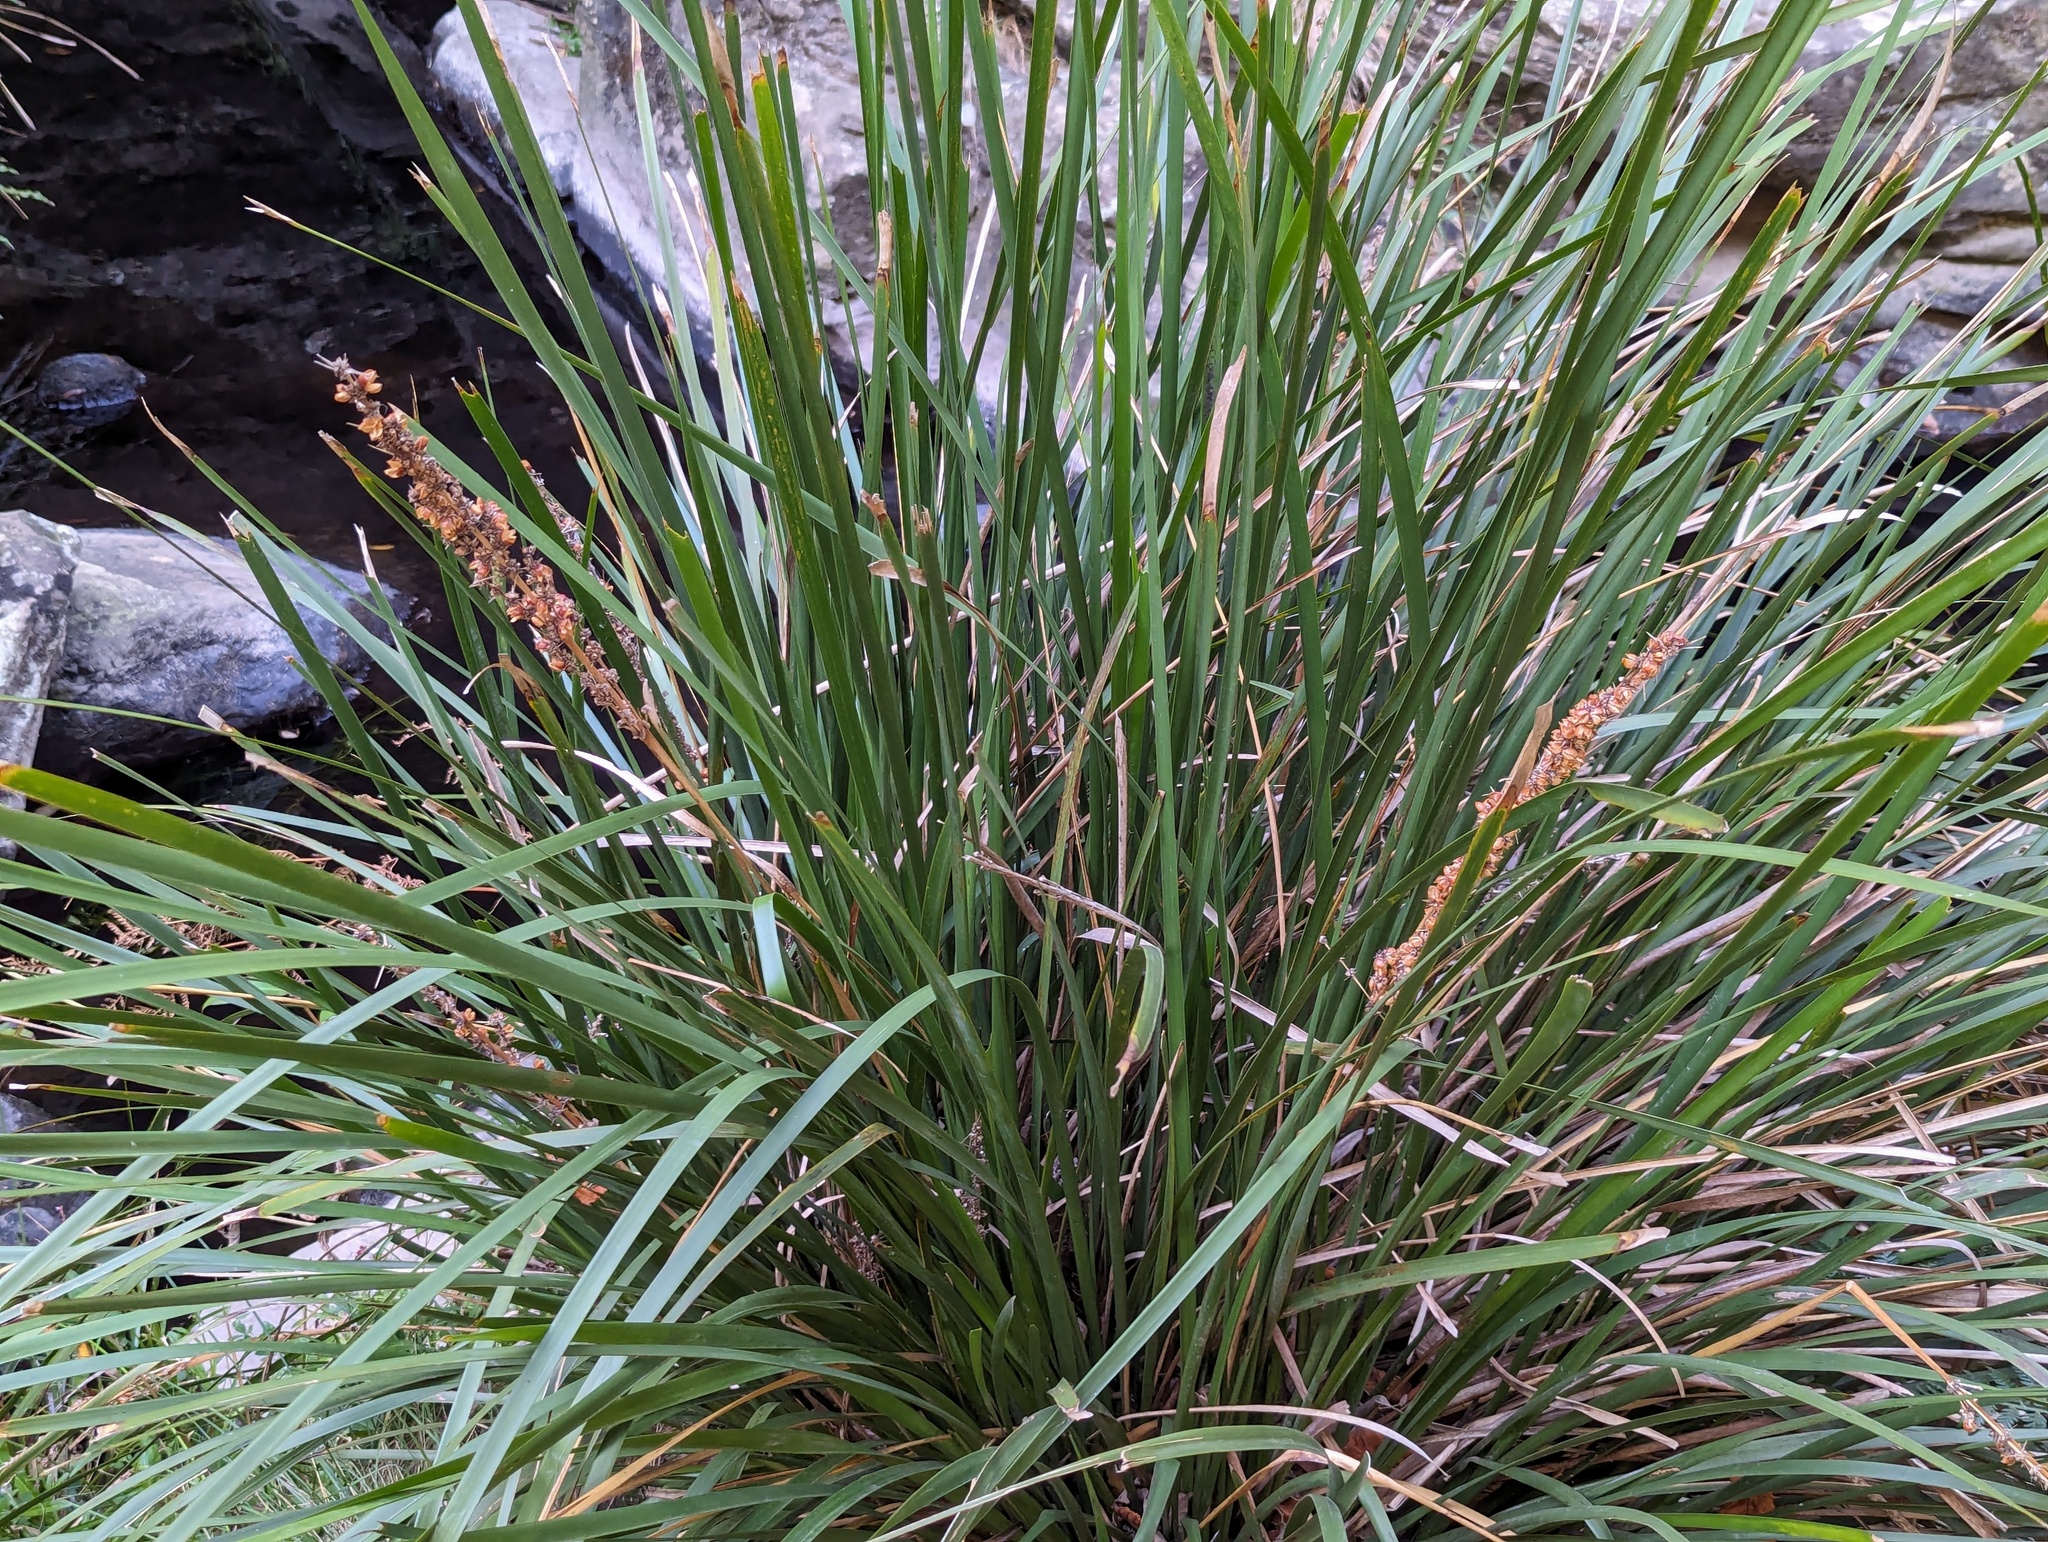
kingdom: Plantae
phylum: Tracheophyta
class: Liliopsida
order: Asparagales
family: Asparagaceae
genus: Lomandra
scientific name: Lomandra longifolia
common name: Longleaf mat-rush
